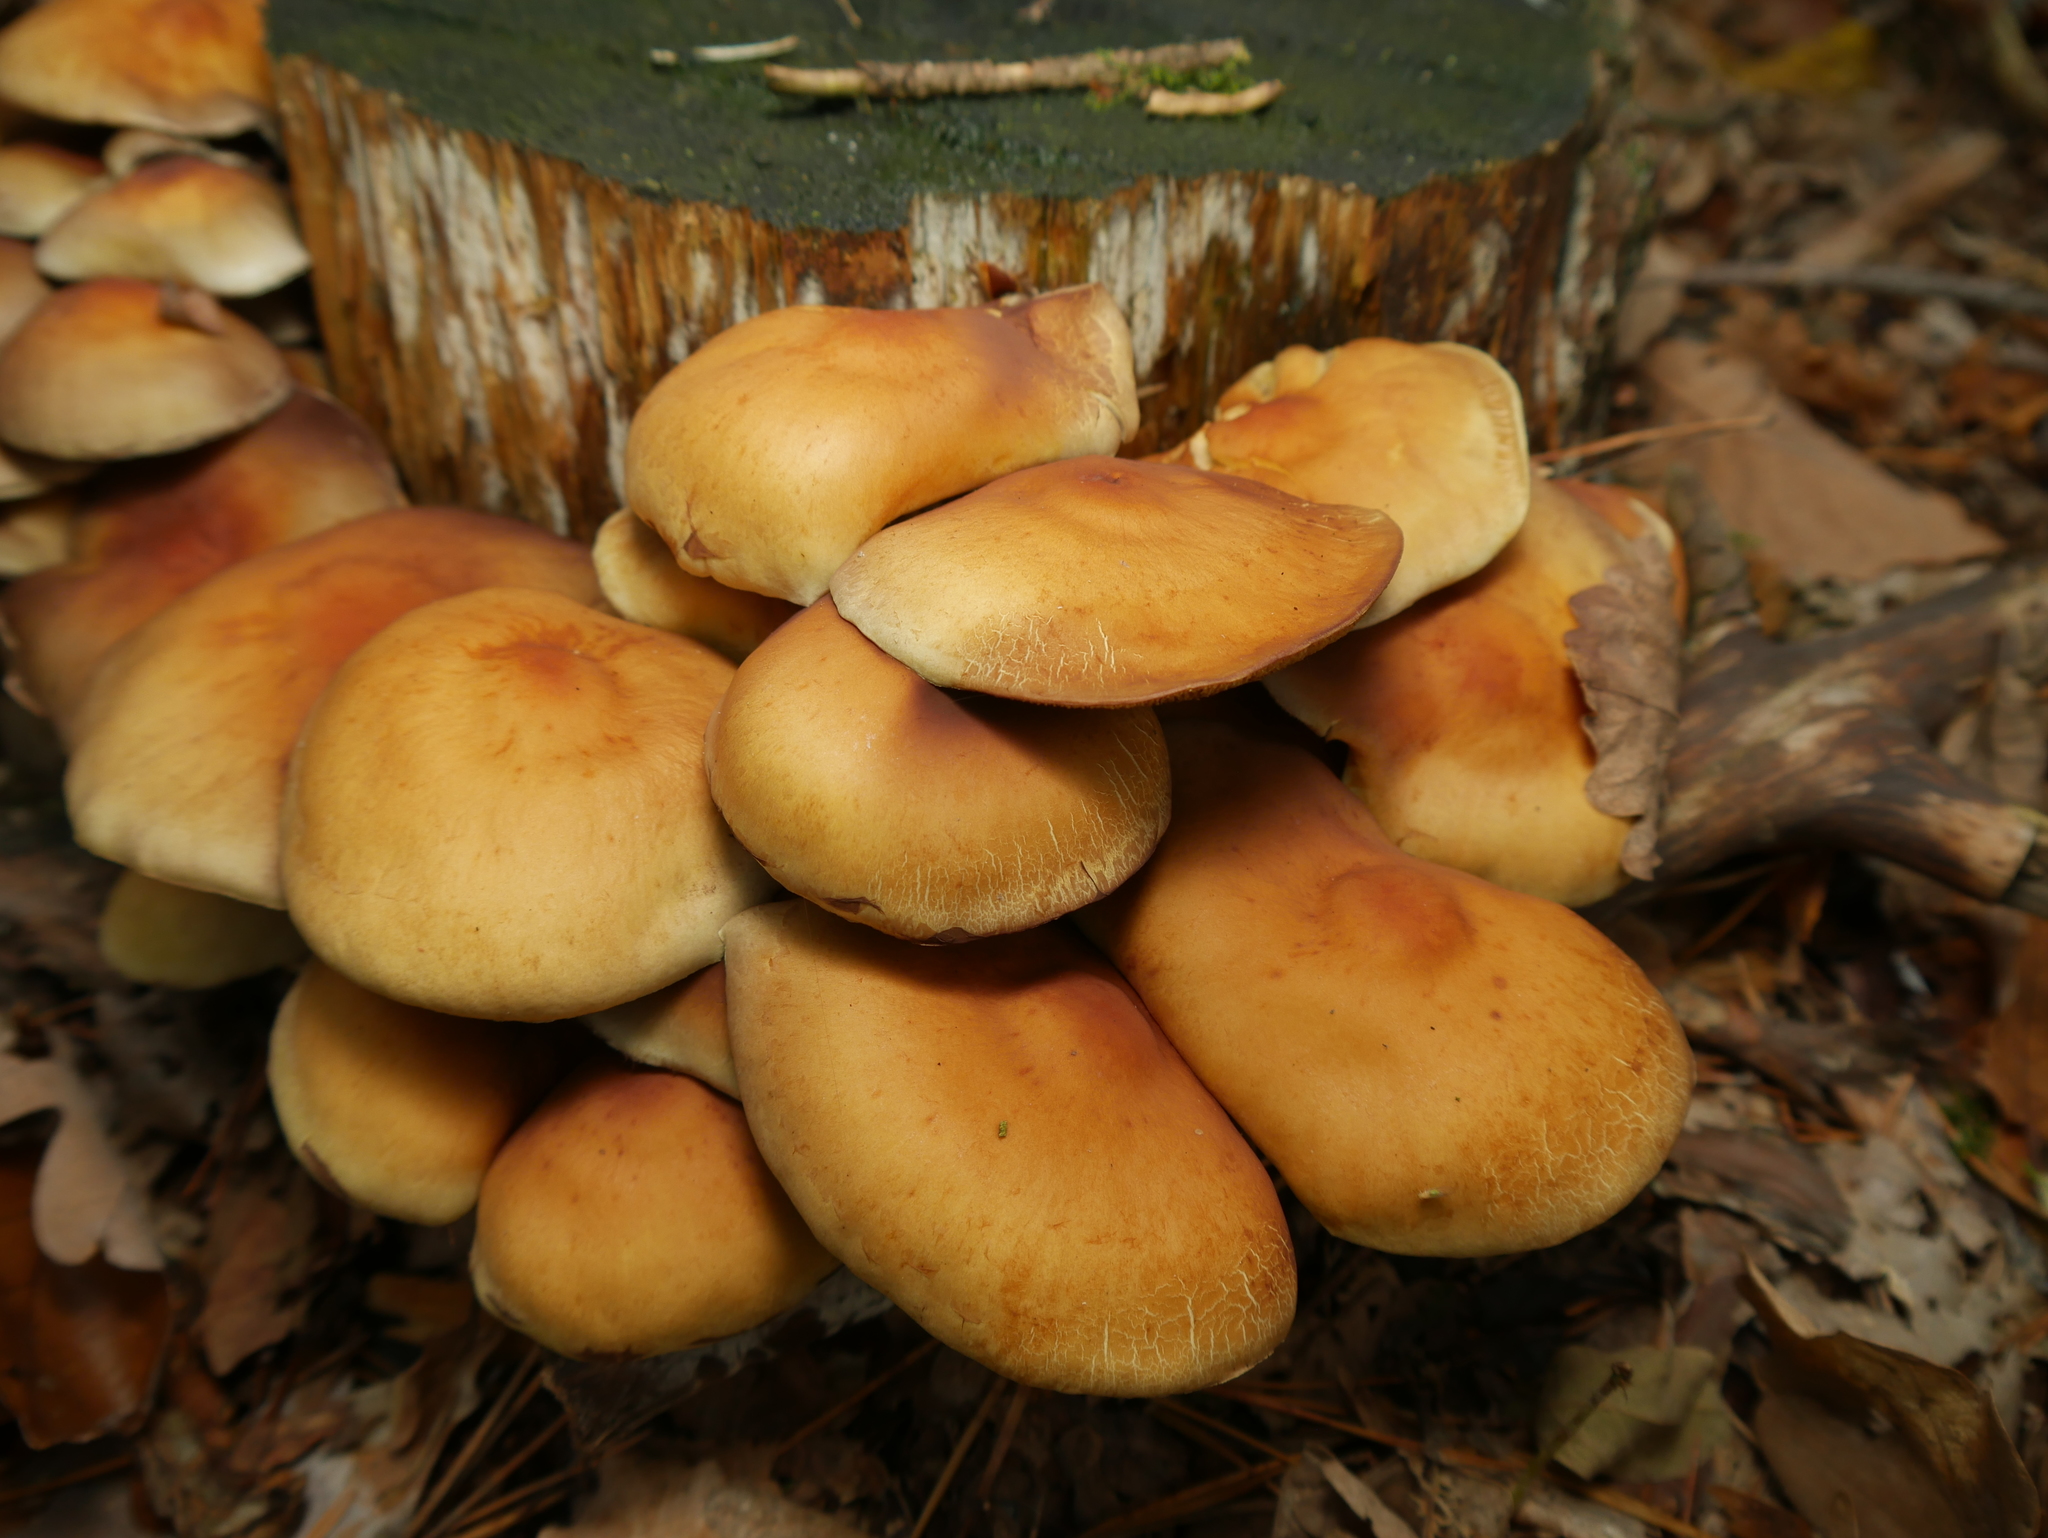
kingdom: Fungi
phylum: Basidiomycota
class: Agaricomycetes
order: Agaricales
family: Strophariaceae
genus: Hypholoma
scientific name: Hypholoma fasciculare
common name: Sulphur tuft
